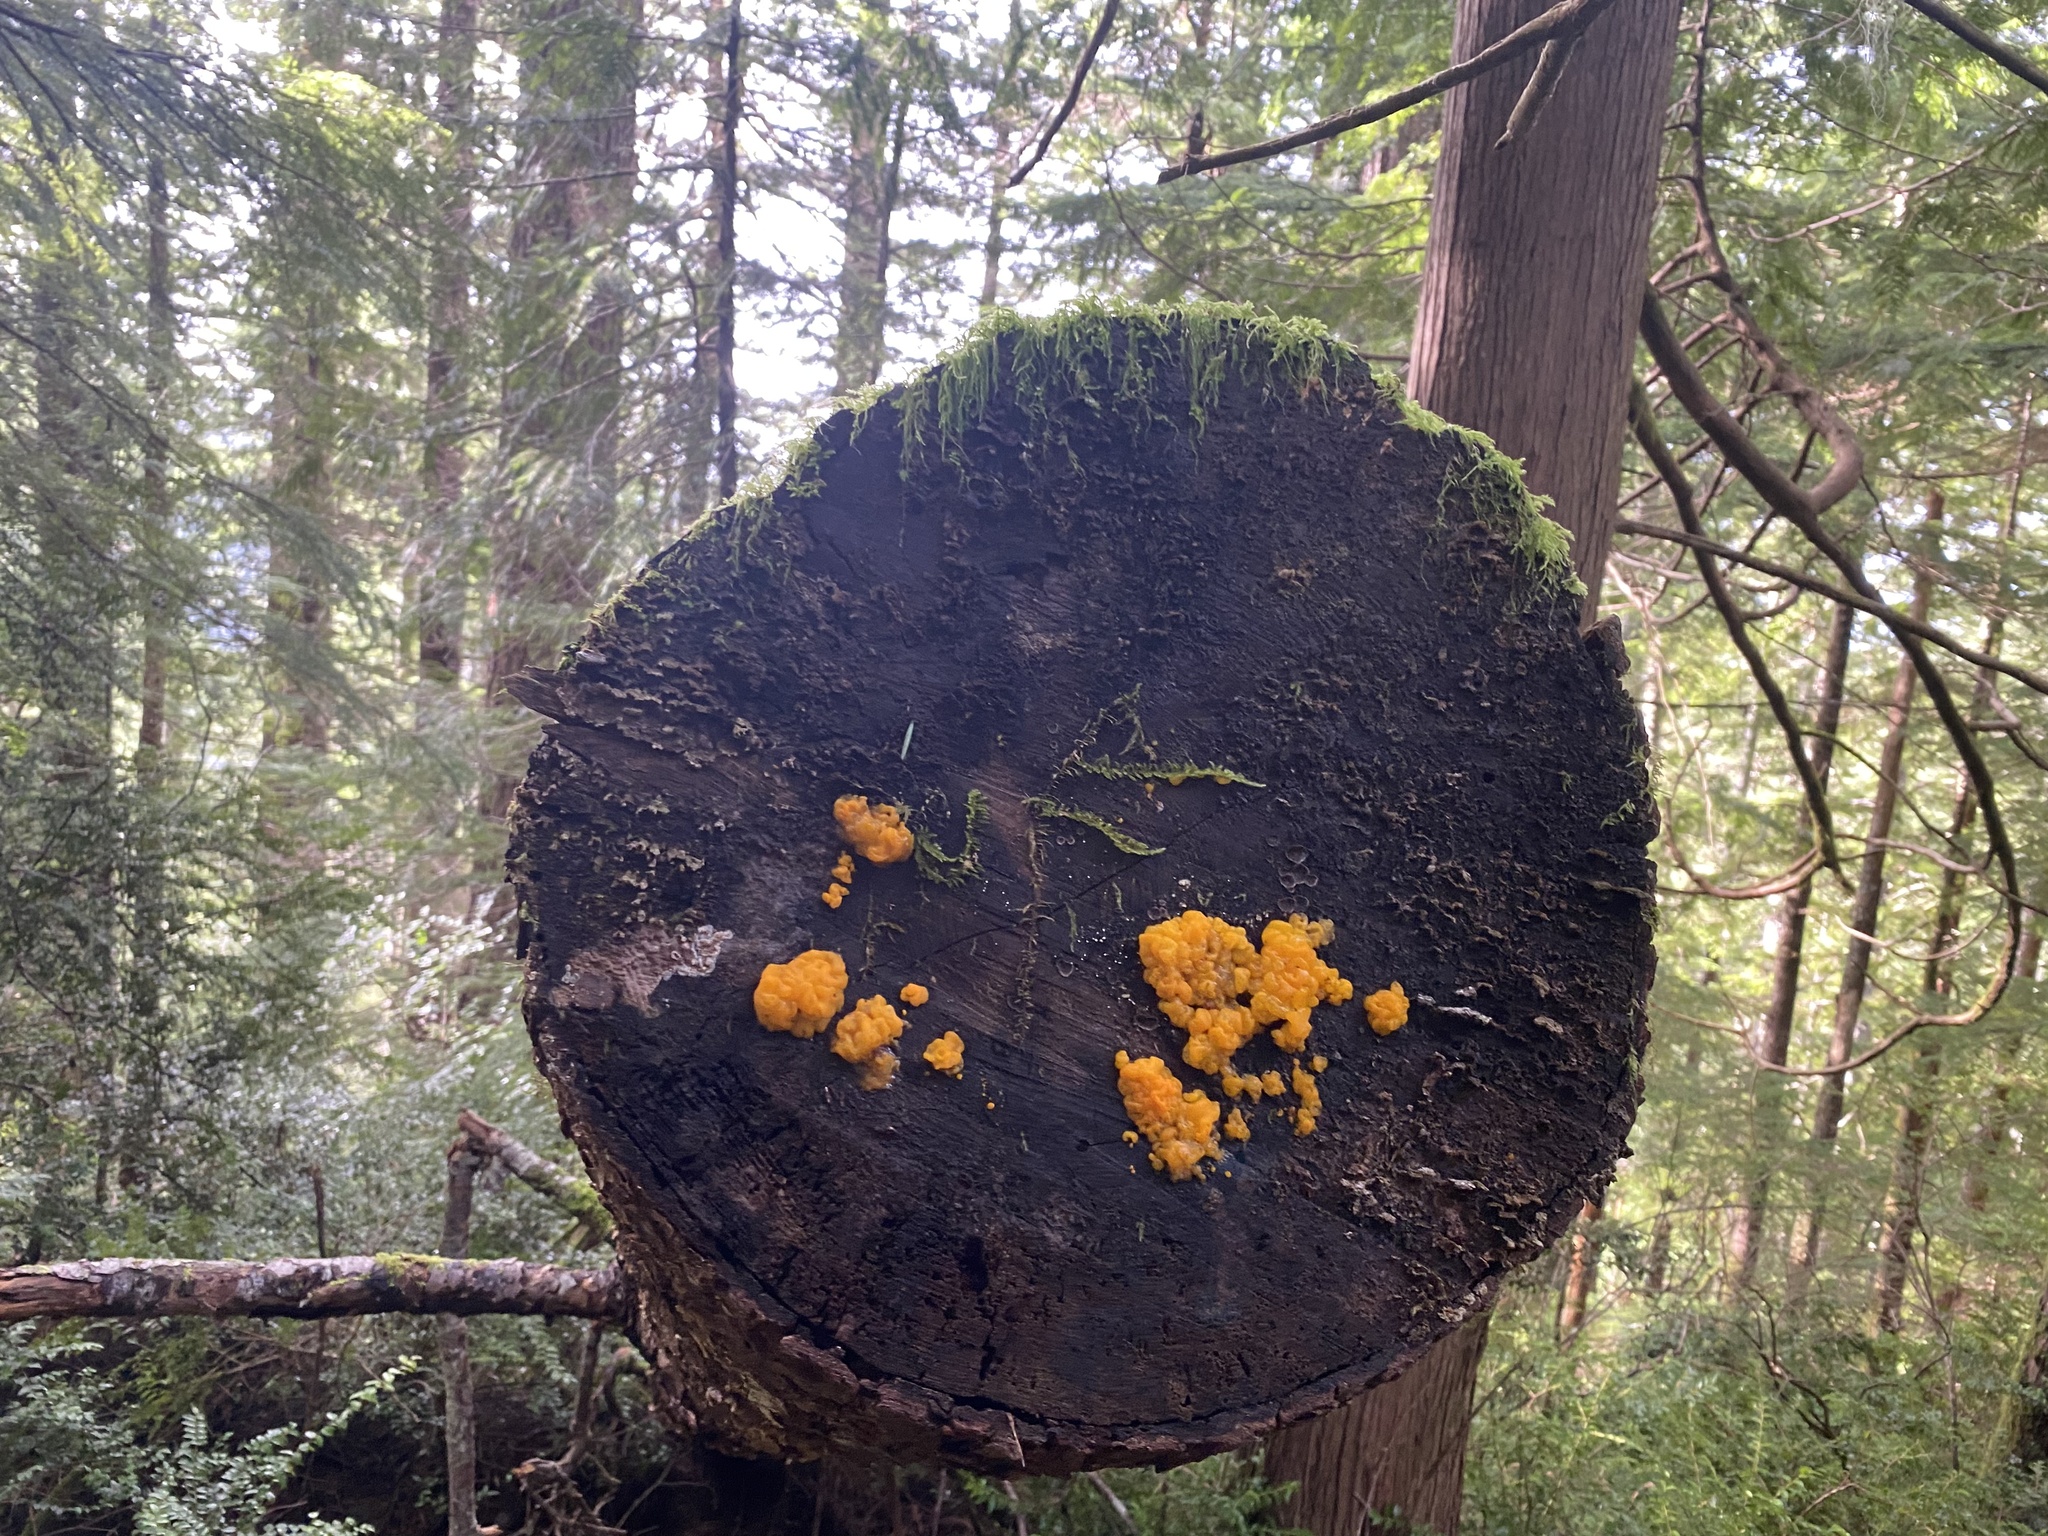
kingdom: Fungi
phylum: Basidiomycota
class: Dacrymycetes
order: Dacrymycetales
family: Dacrymycetaceae
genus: Dacrymyces
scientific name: Dacrymyces chrysospermus
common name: Orange jelly spot
